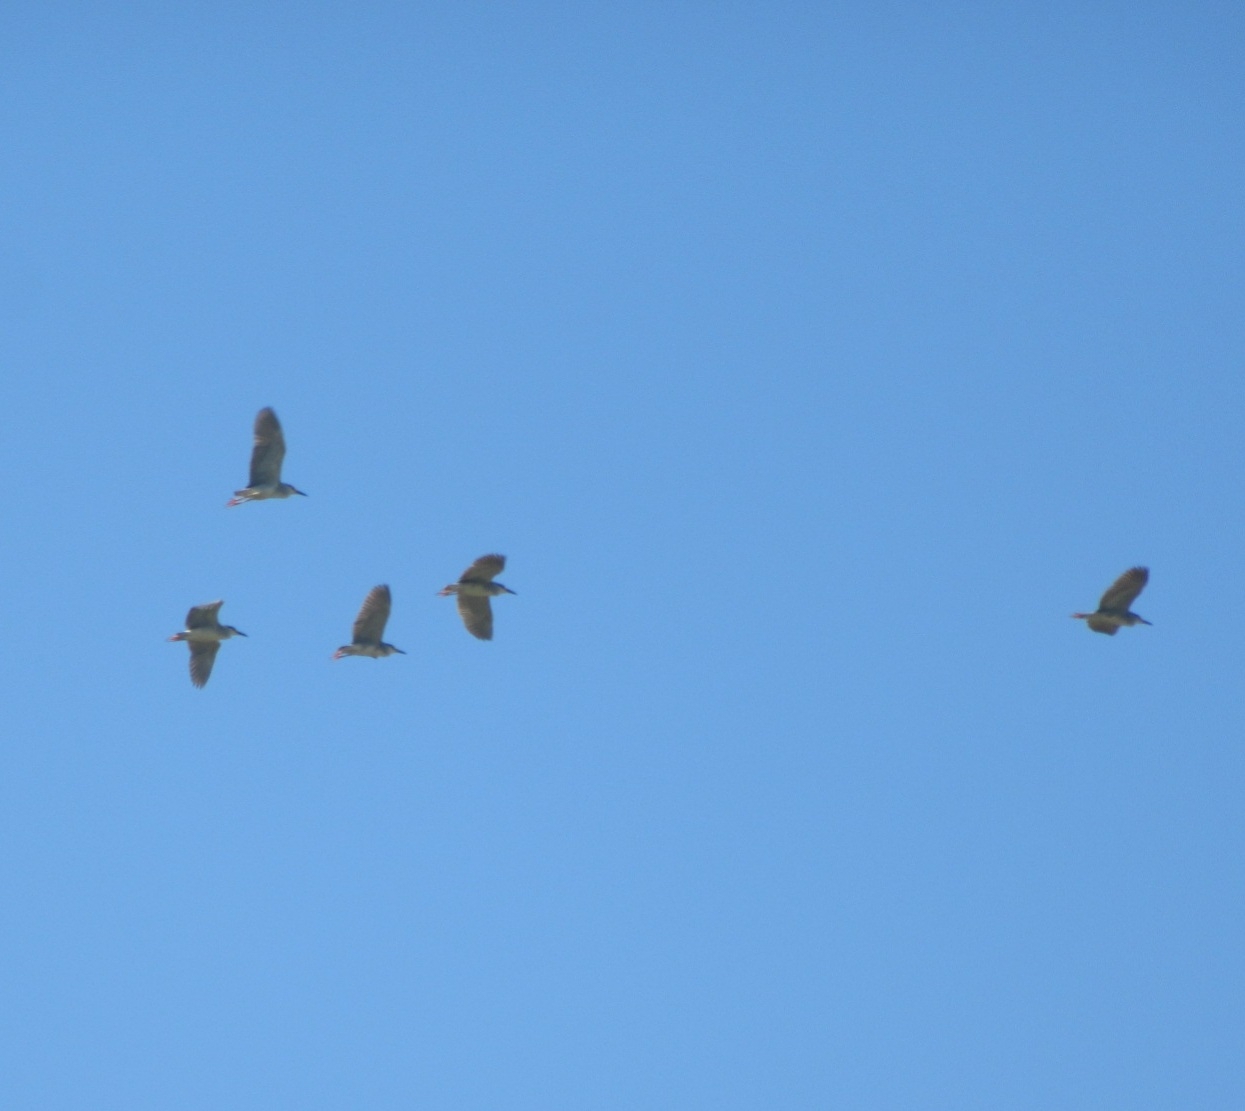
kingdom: Animalia
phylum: Chordata
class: Aves
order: Pelecaniformes
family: Ardeidae
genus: Nycticorax
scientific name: Nycticorax nycticorax
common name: Black-crowned night heron
